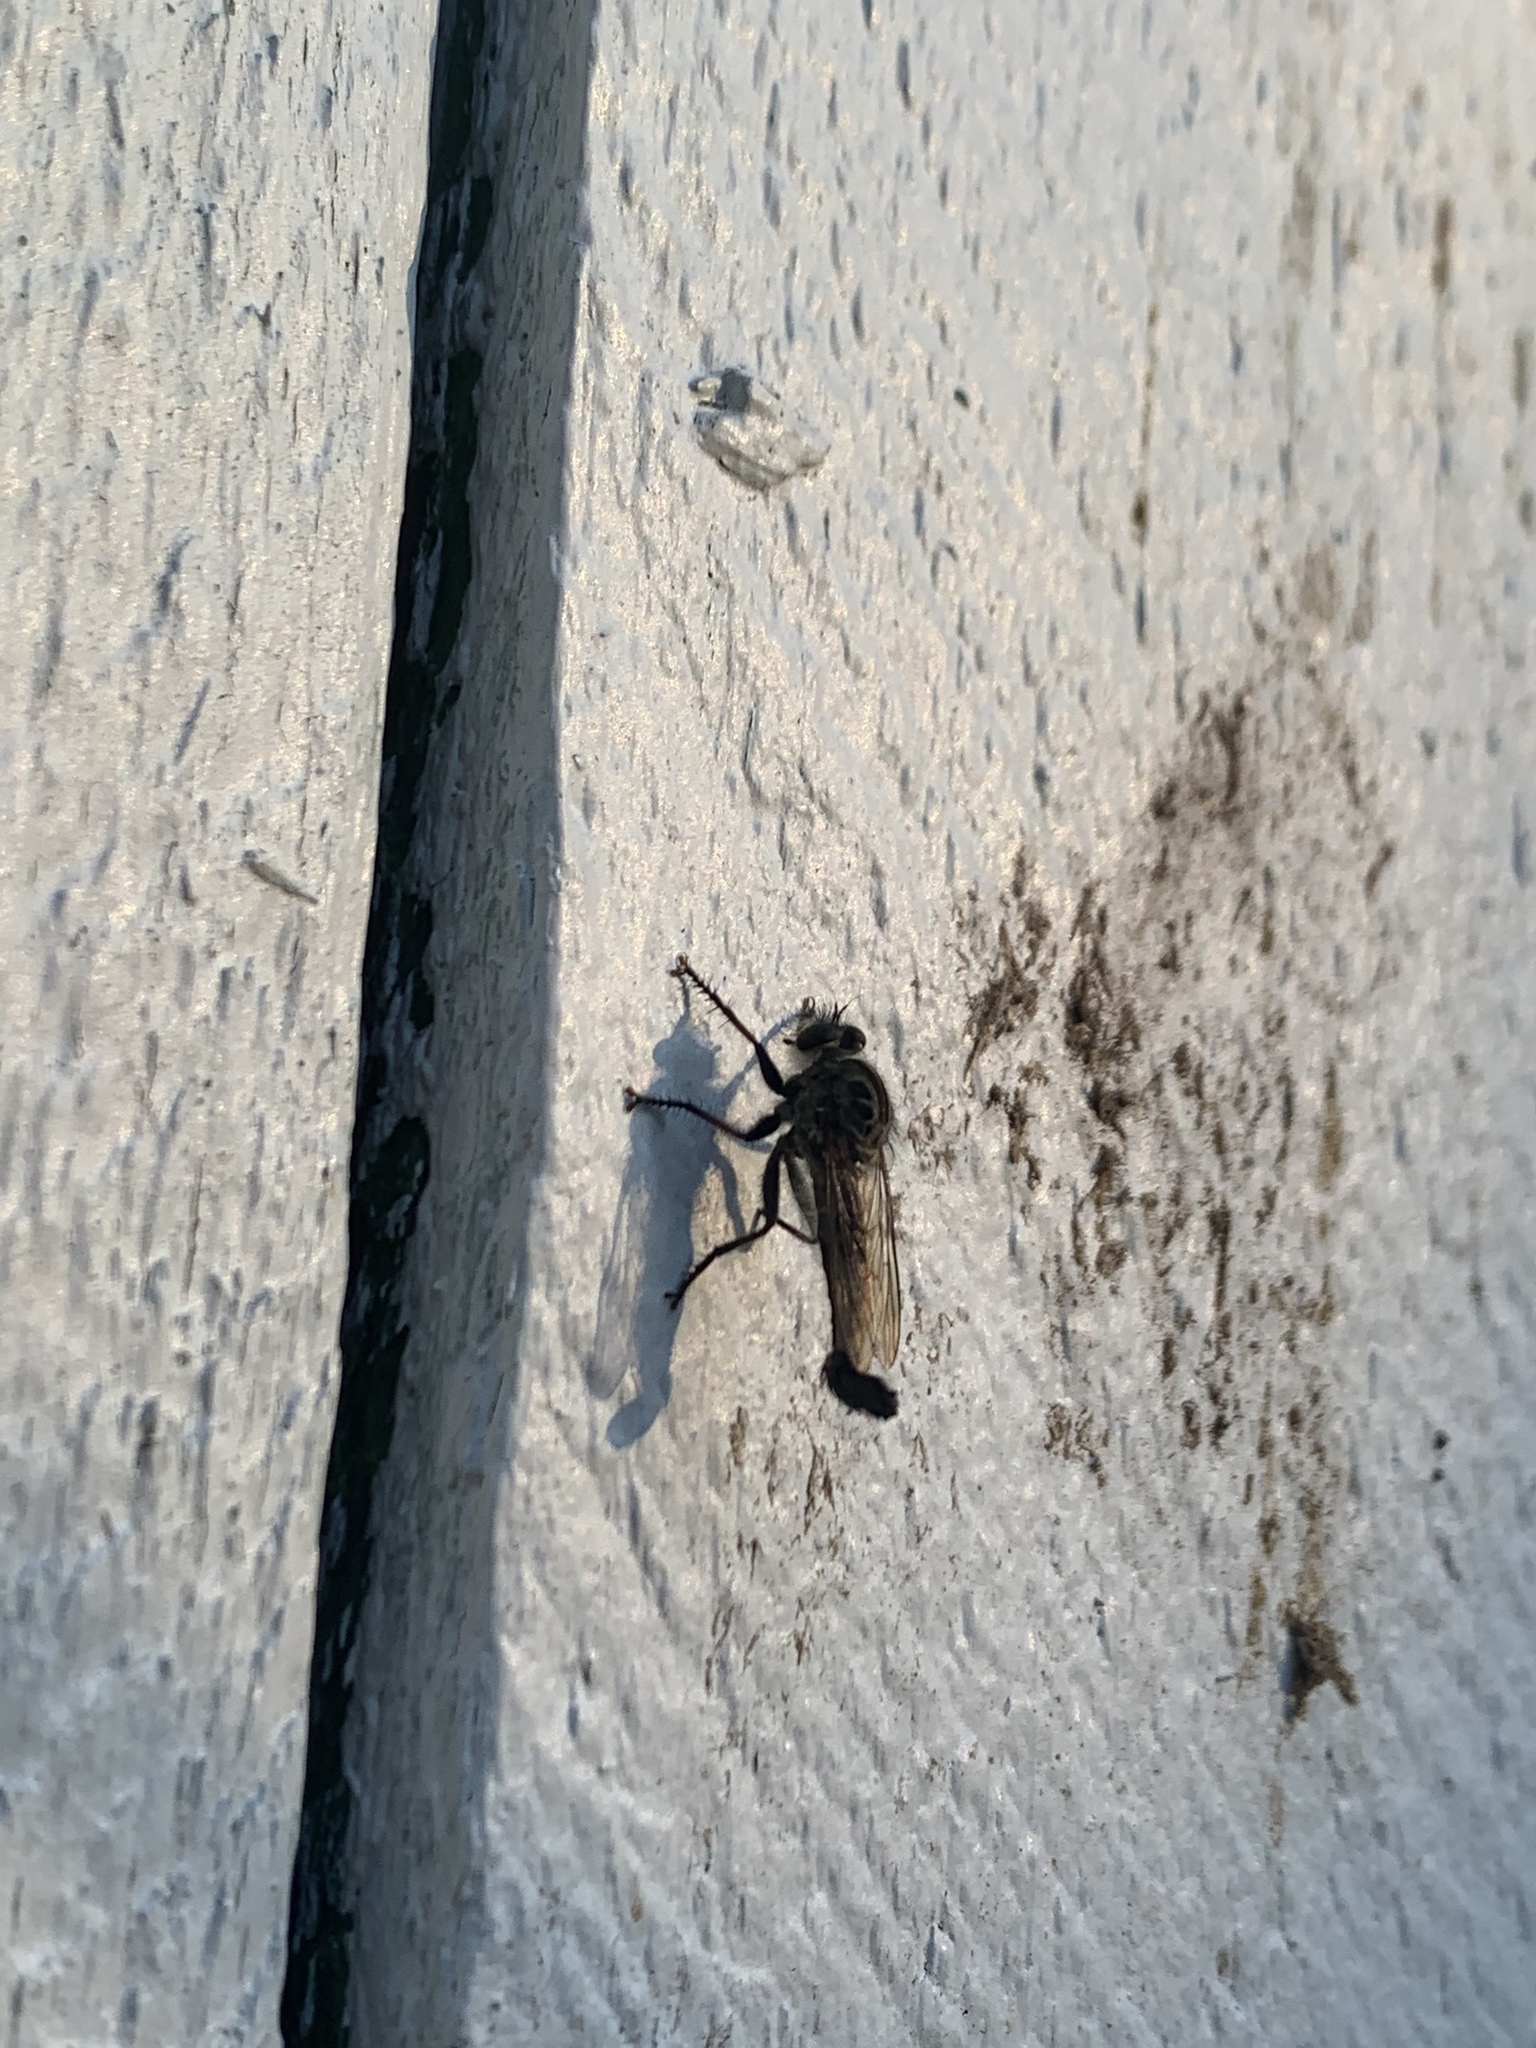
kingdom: Animalia
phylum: Arthropoda
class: Insecta
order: Diptera
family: Asilidae
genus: Efferia
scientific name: Efferia aestuans
